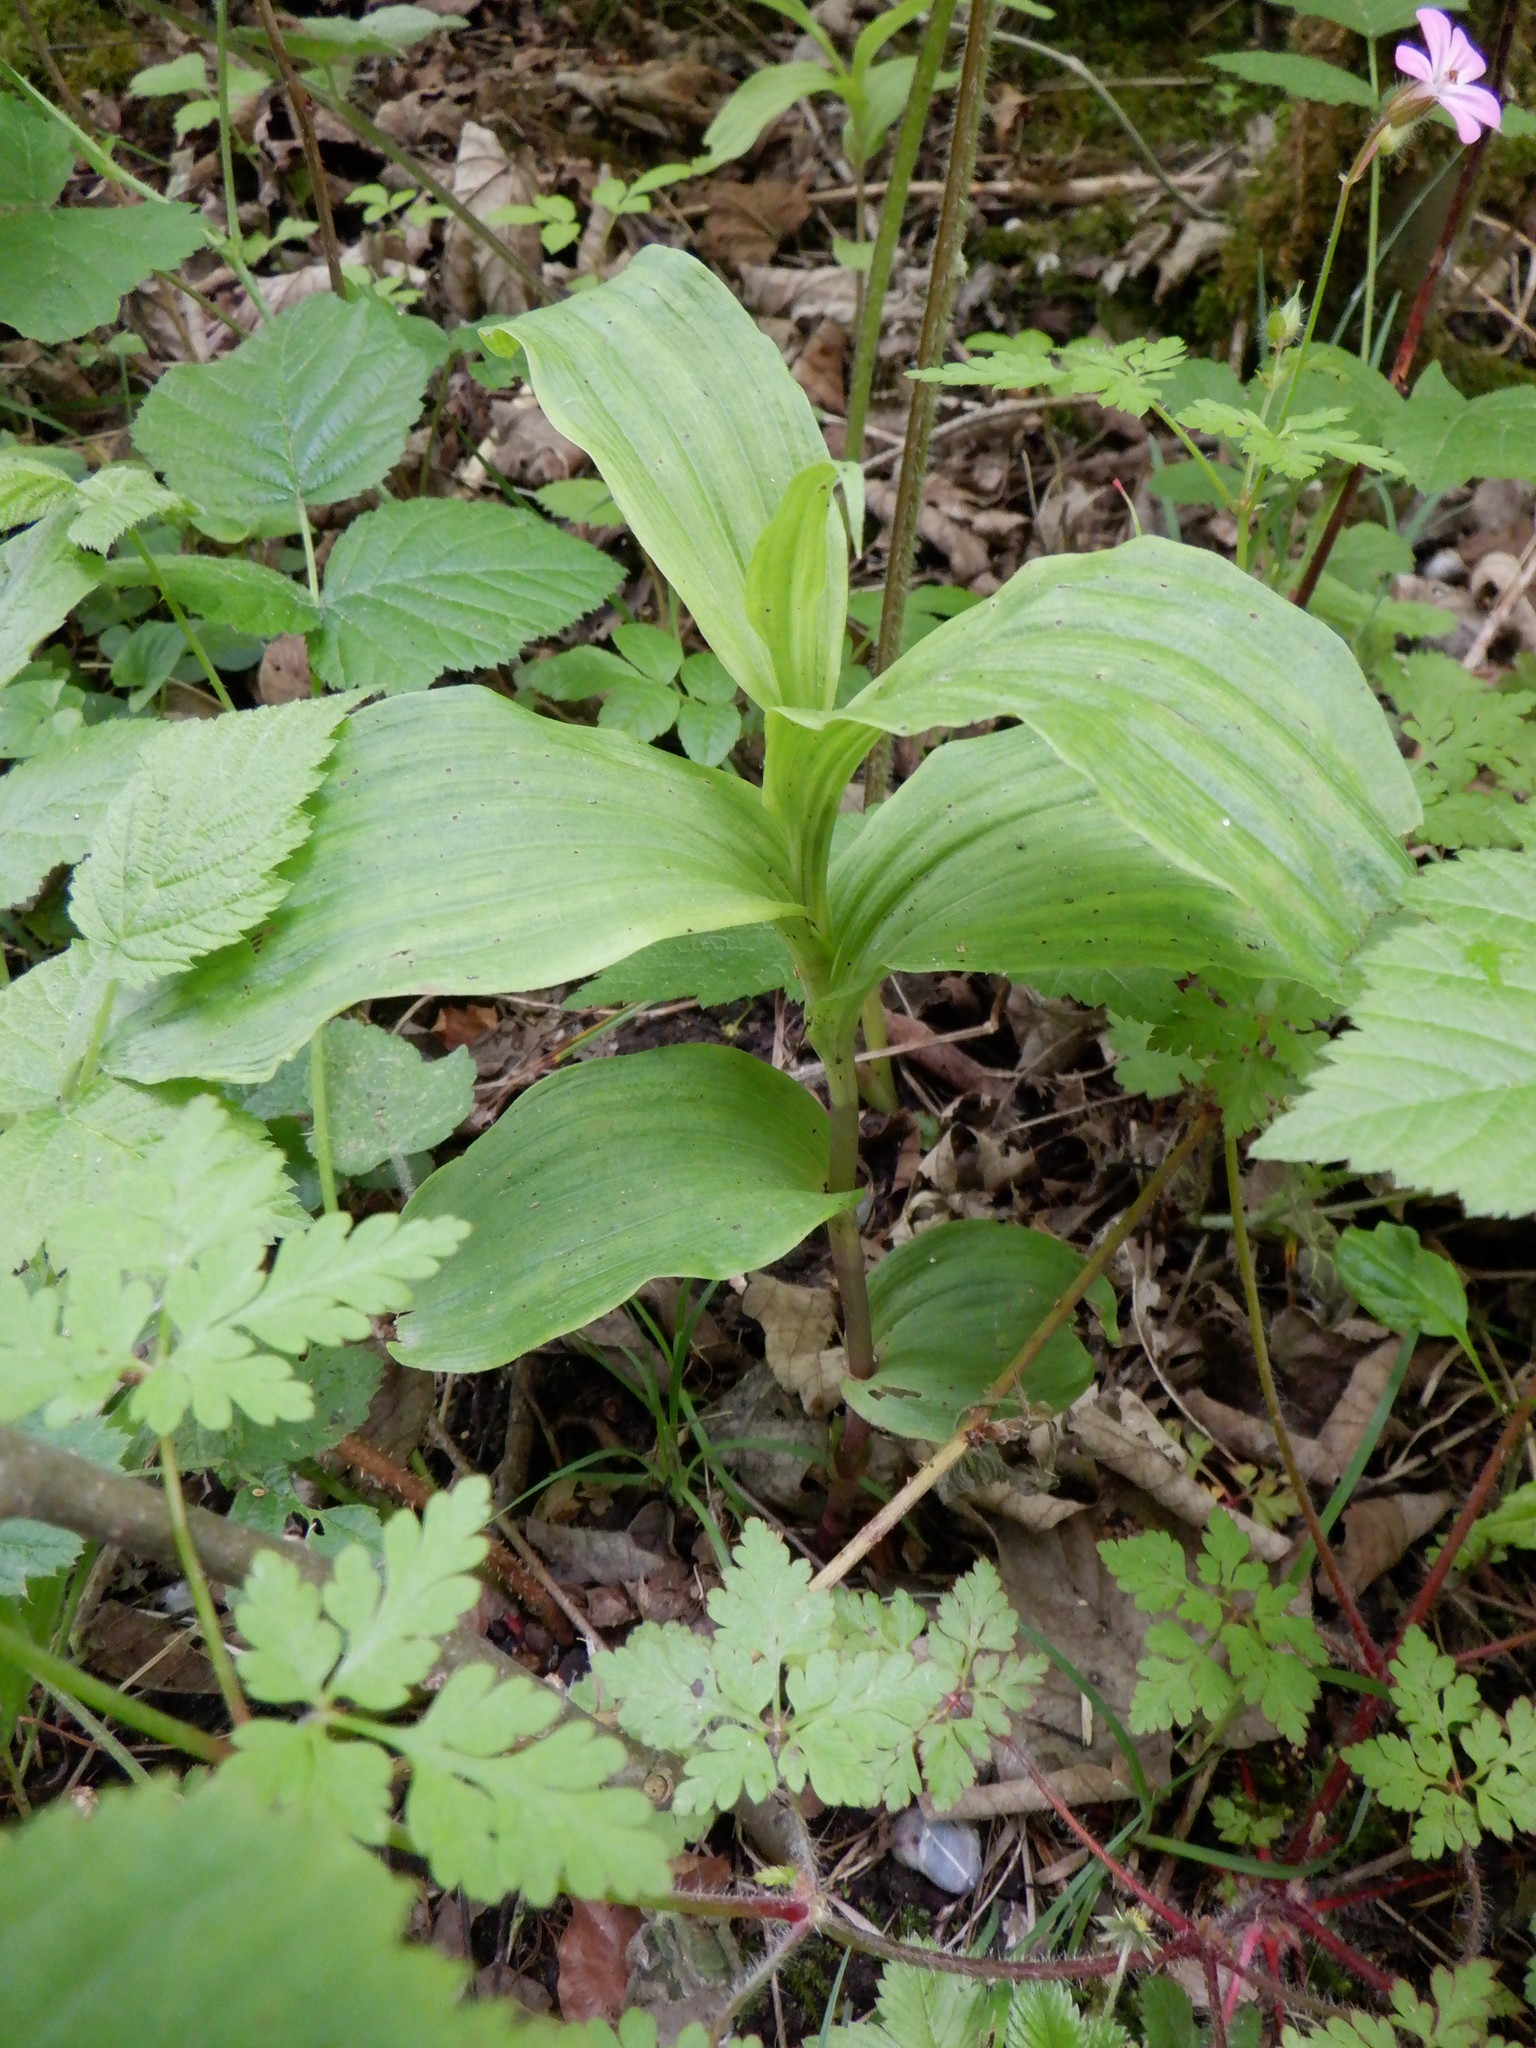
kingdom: Plantae
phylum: Tracheophyta
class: Liliopsida
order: Asparagales
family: Orchidaceae
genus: Epipactis
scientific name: Epipactis helleborine
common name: Broad-leaved helleborine
